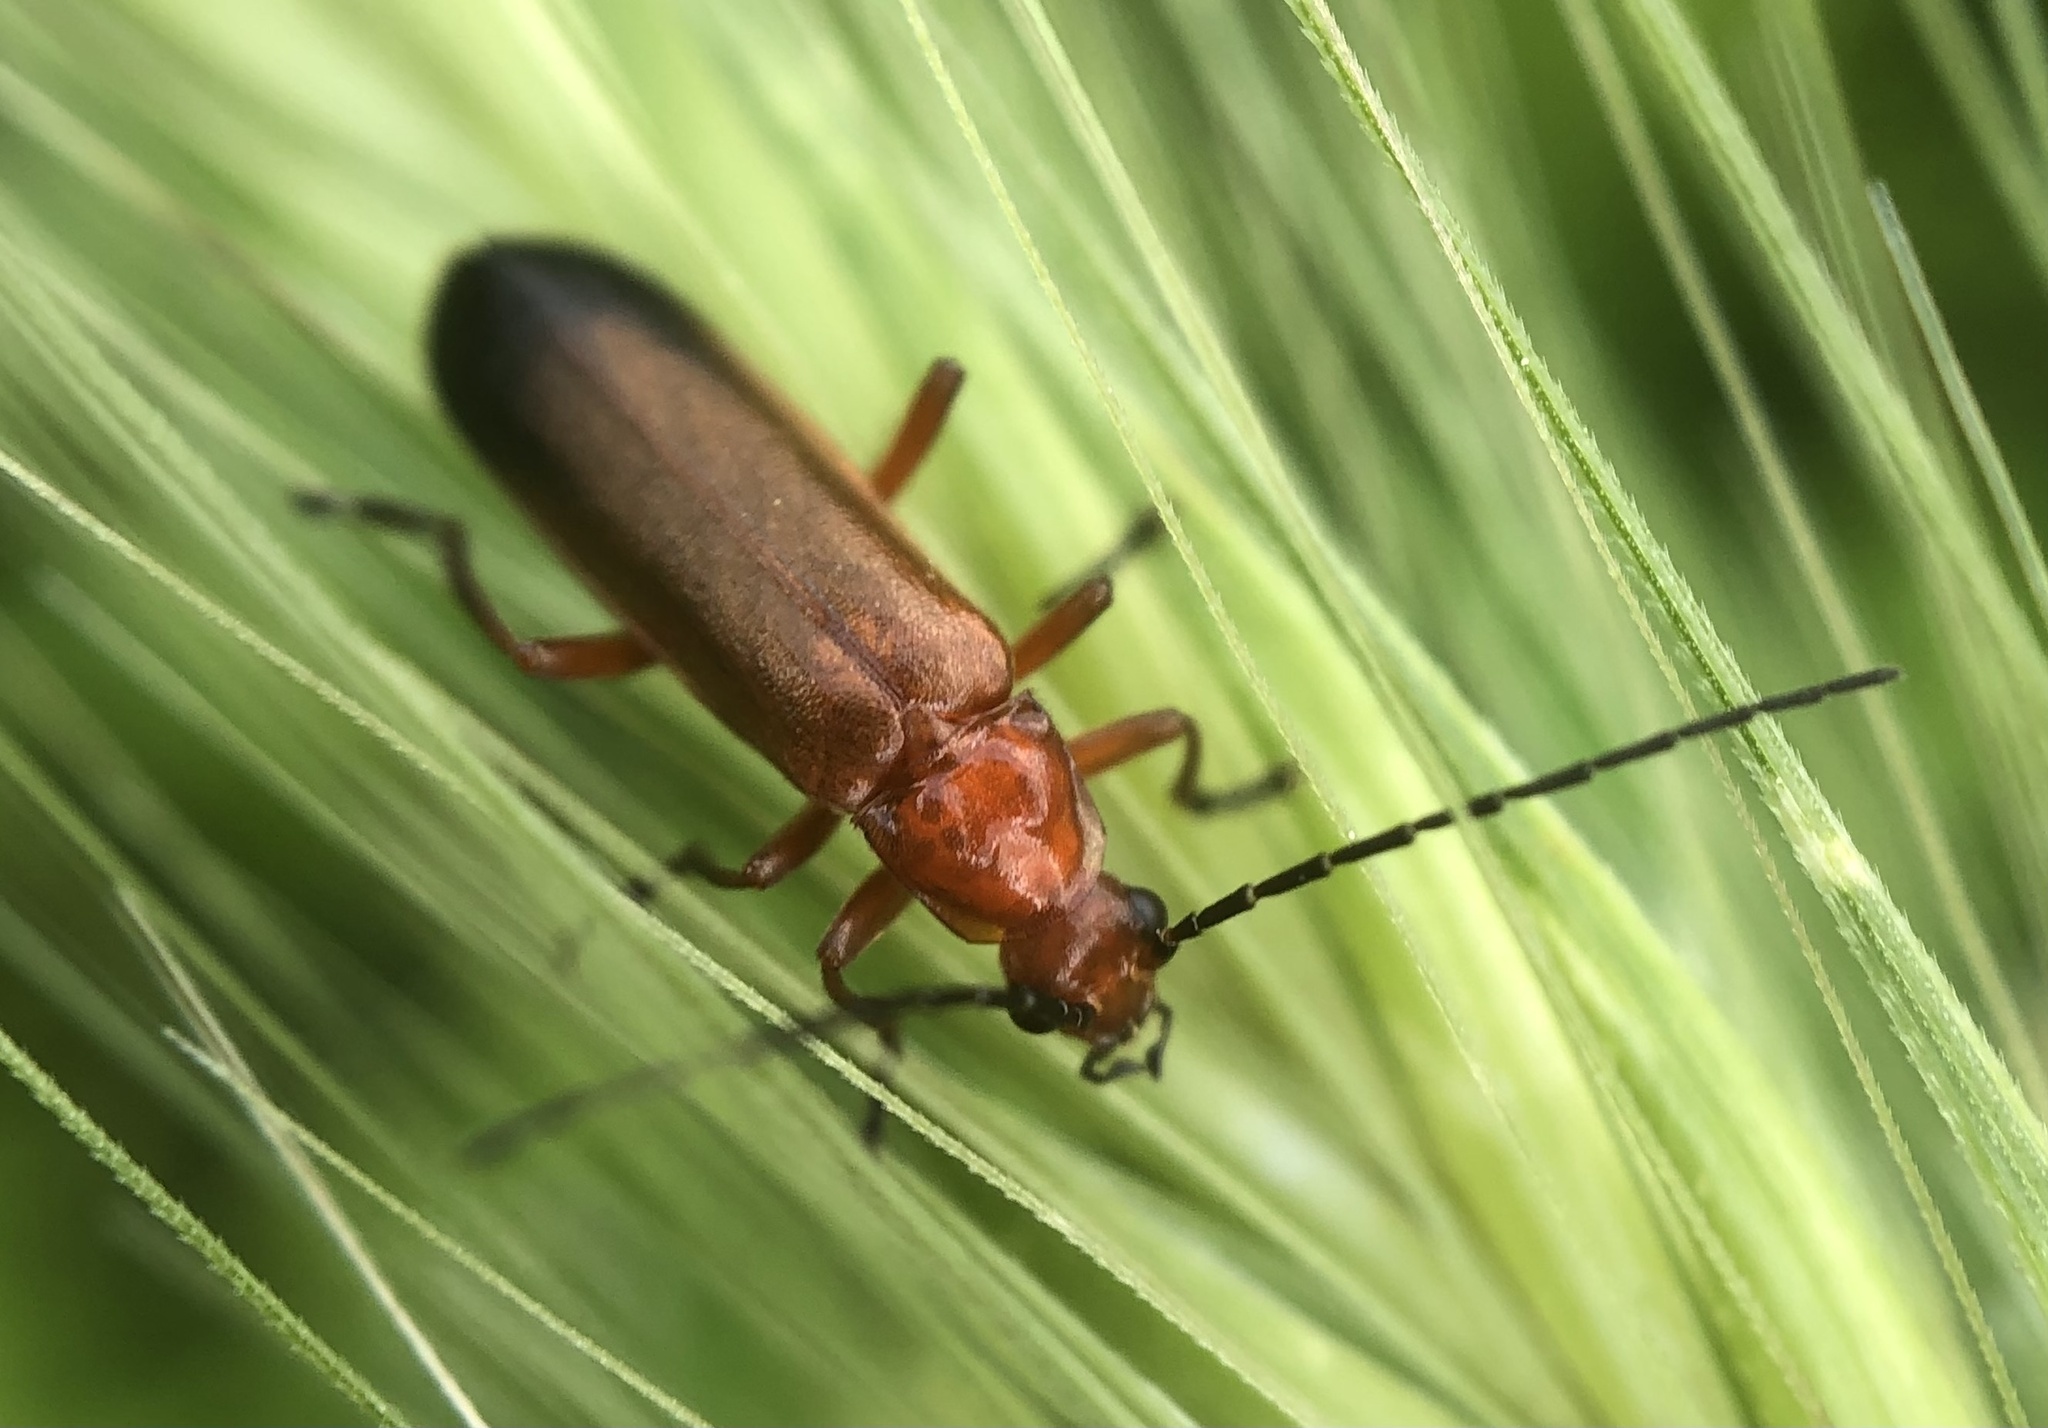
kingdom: Animalia
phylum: Arthropoda
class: Insecta
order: Coleoptera
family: Cantharidae
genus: Rhagonycha
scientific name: Rhagonycha fulva
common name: Common red soldier beetle
